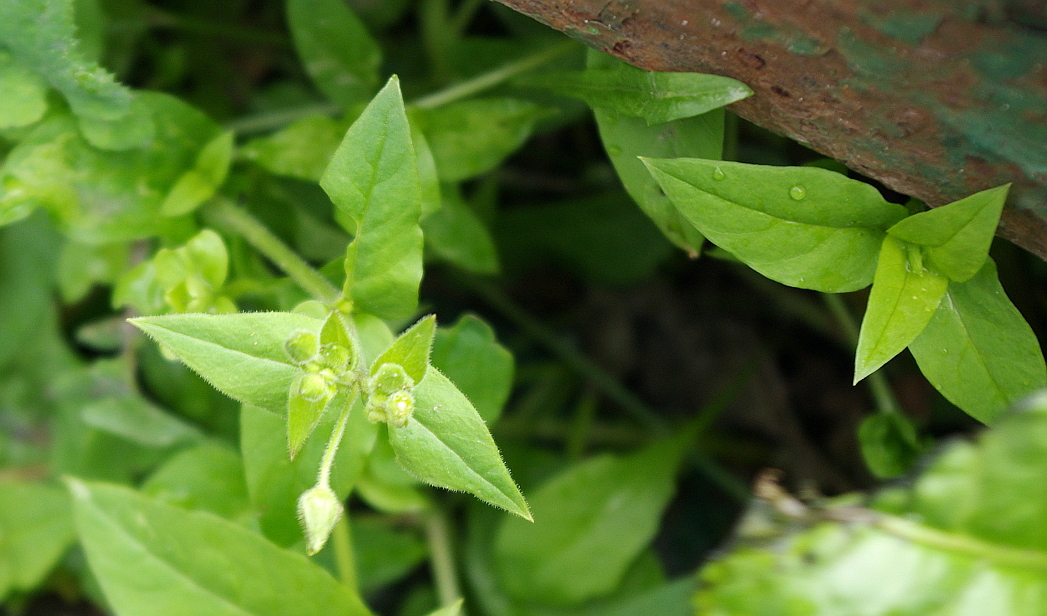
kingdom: Plantae
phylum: Tracheophyta
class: Magnoliopsida
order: Caryophyllales
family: Caryophyllaceae
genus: Stellaria
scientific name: Stellaria aquatica
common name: Water chickweed
